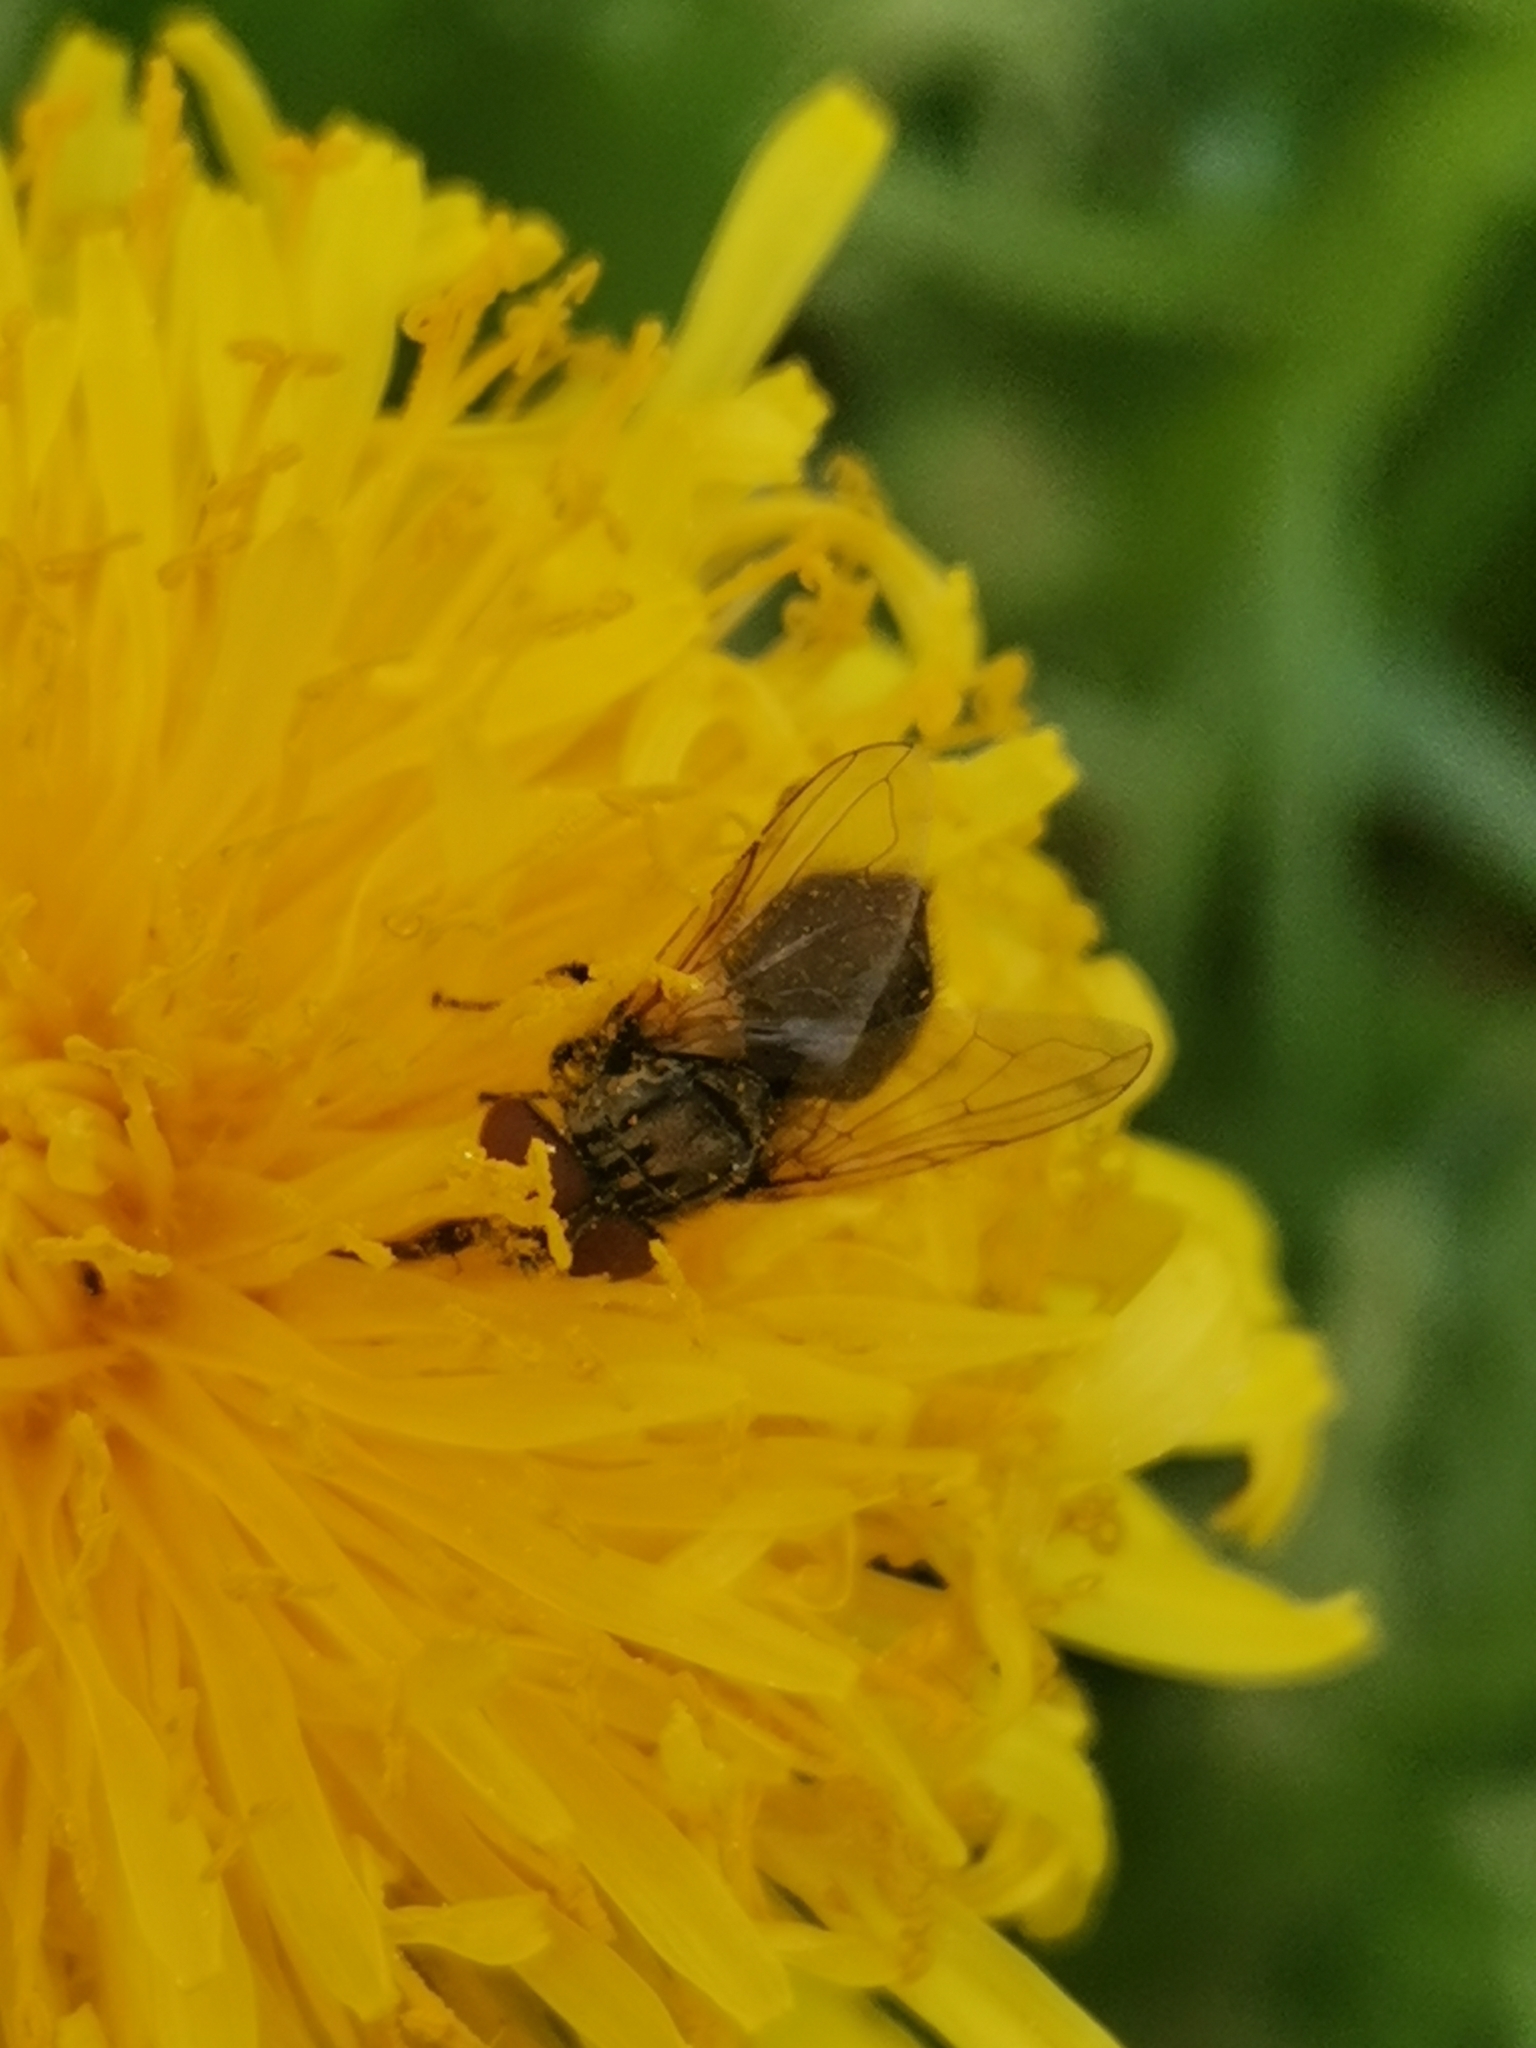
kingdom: Animalia
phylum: Arthropoda
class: Insecta
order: Diptera
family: Tachinidae
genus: Phasia
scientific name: Phasia subcoleoptrata
